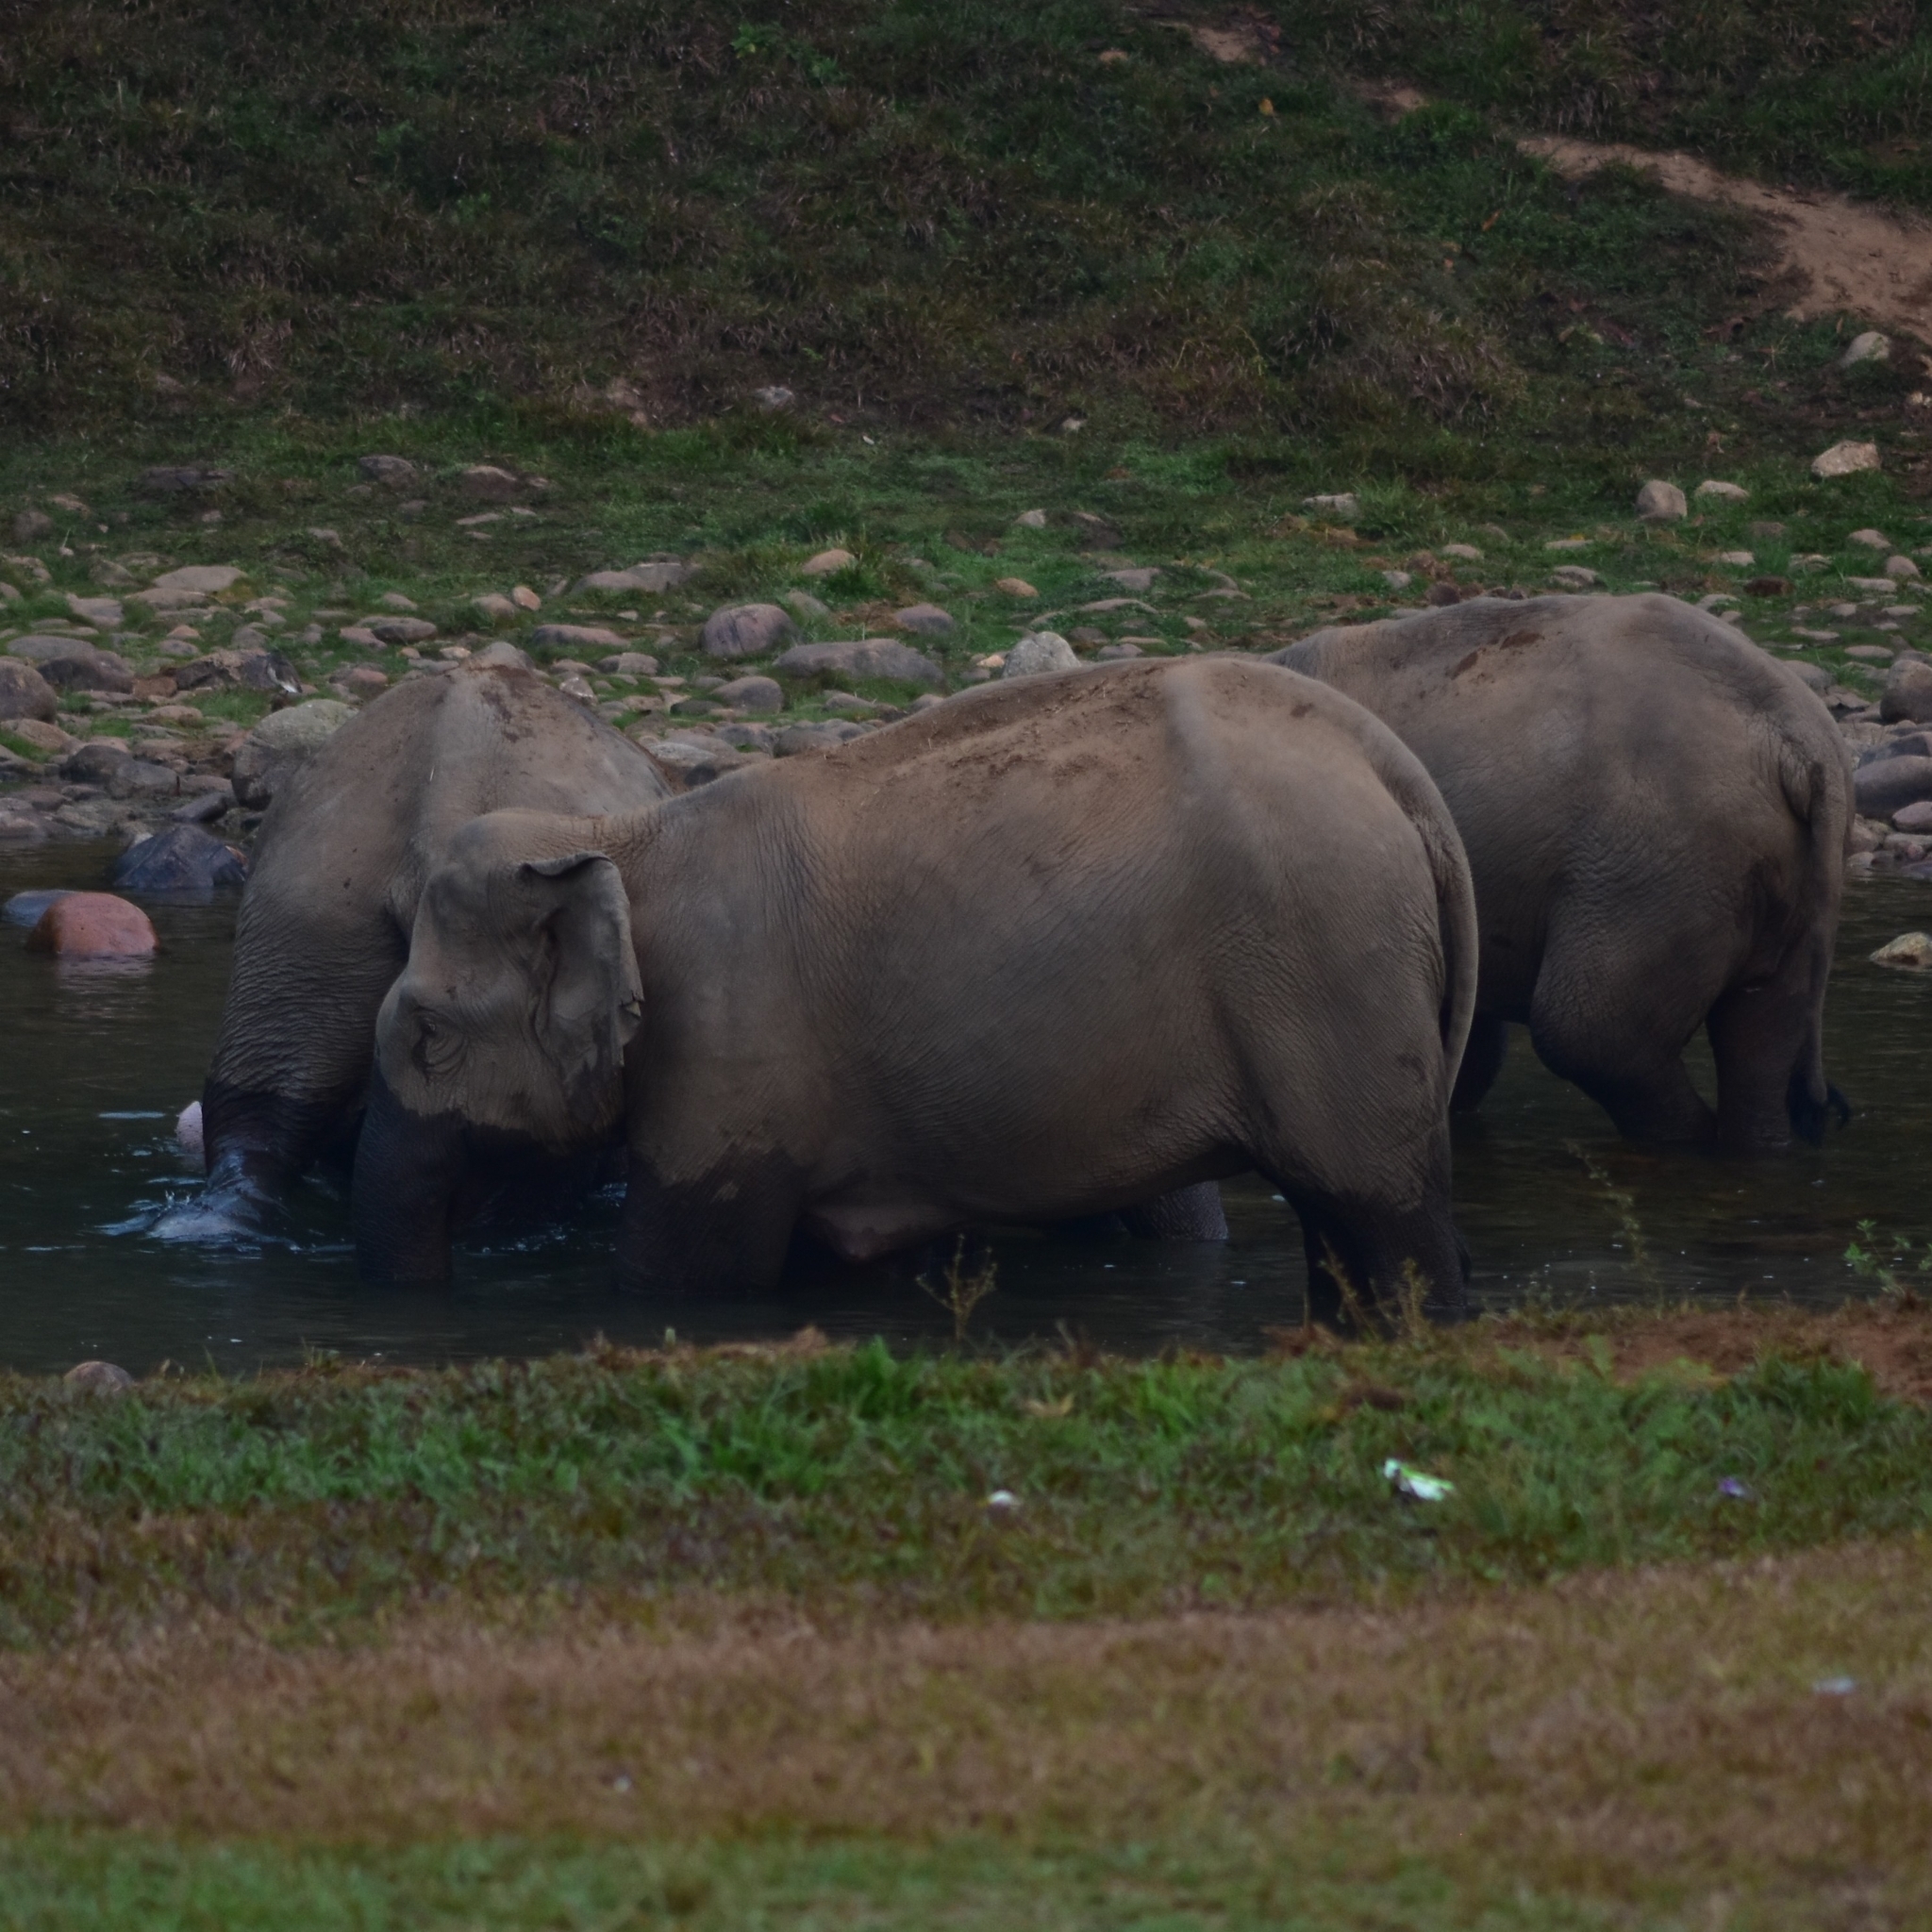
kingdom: Animalia
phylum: Chordata
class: Mammalia
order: Proboscidea
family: Elephantidae
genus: Elephas
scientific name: Elephas maximus
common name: Asian elephant
